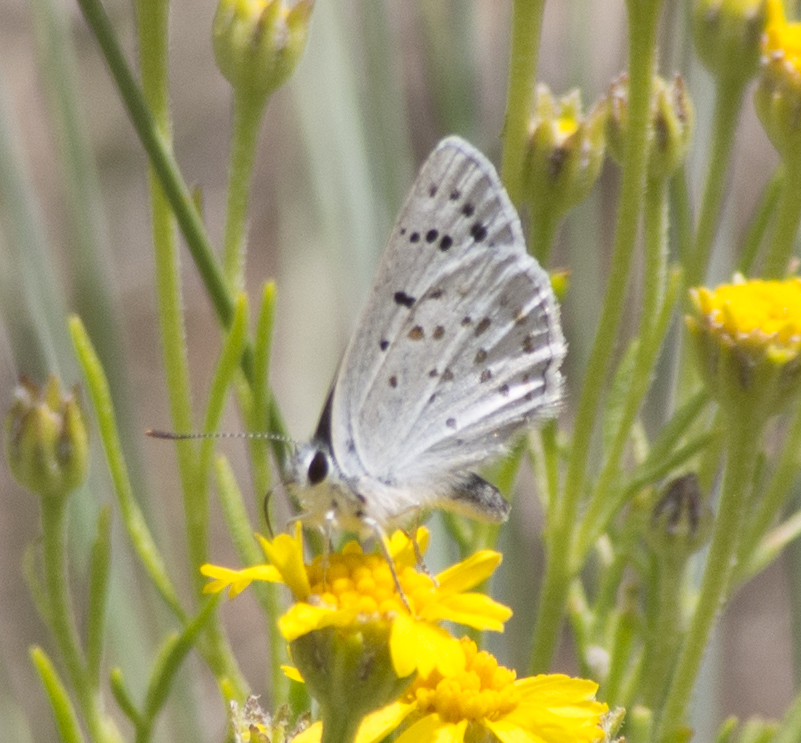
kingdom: Animalia
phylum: Arthropoda
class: Insecta
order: Lepidoptera
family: Lycaenidae
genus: Tharsalea
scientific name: Tharsalea heteronea
